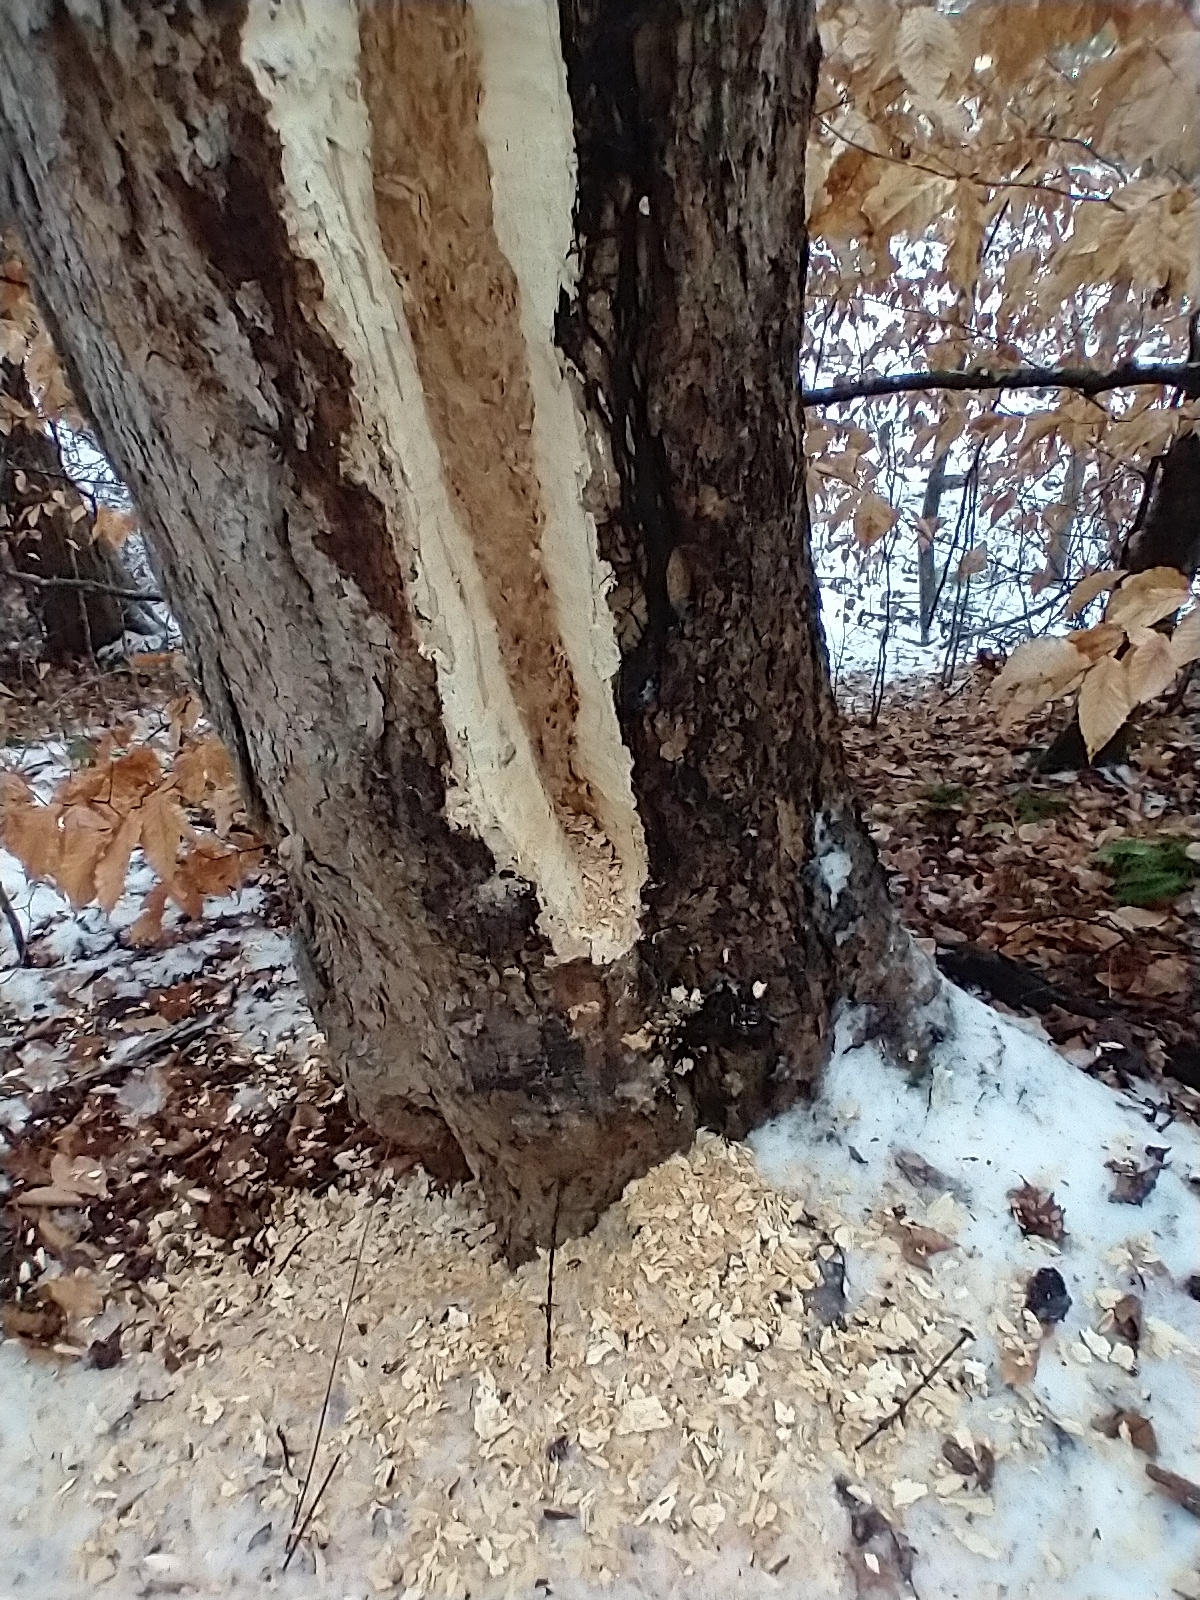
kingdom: Animalia
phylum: Chordata
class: Aves
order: Piciformes
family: Picidae
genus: Dryocopus
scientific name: Dryocopus pileatus
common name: Pileated woodpecker
